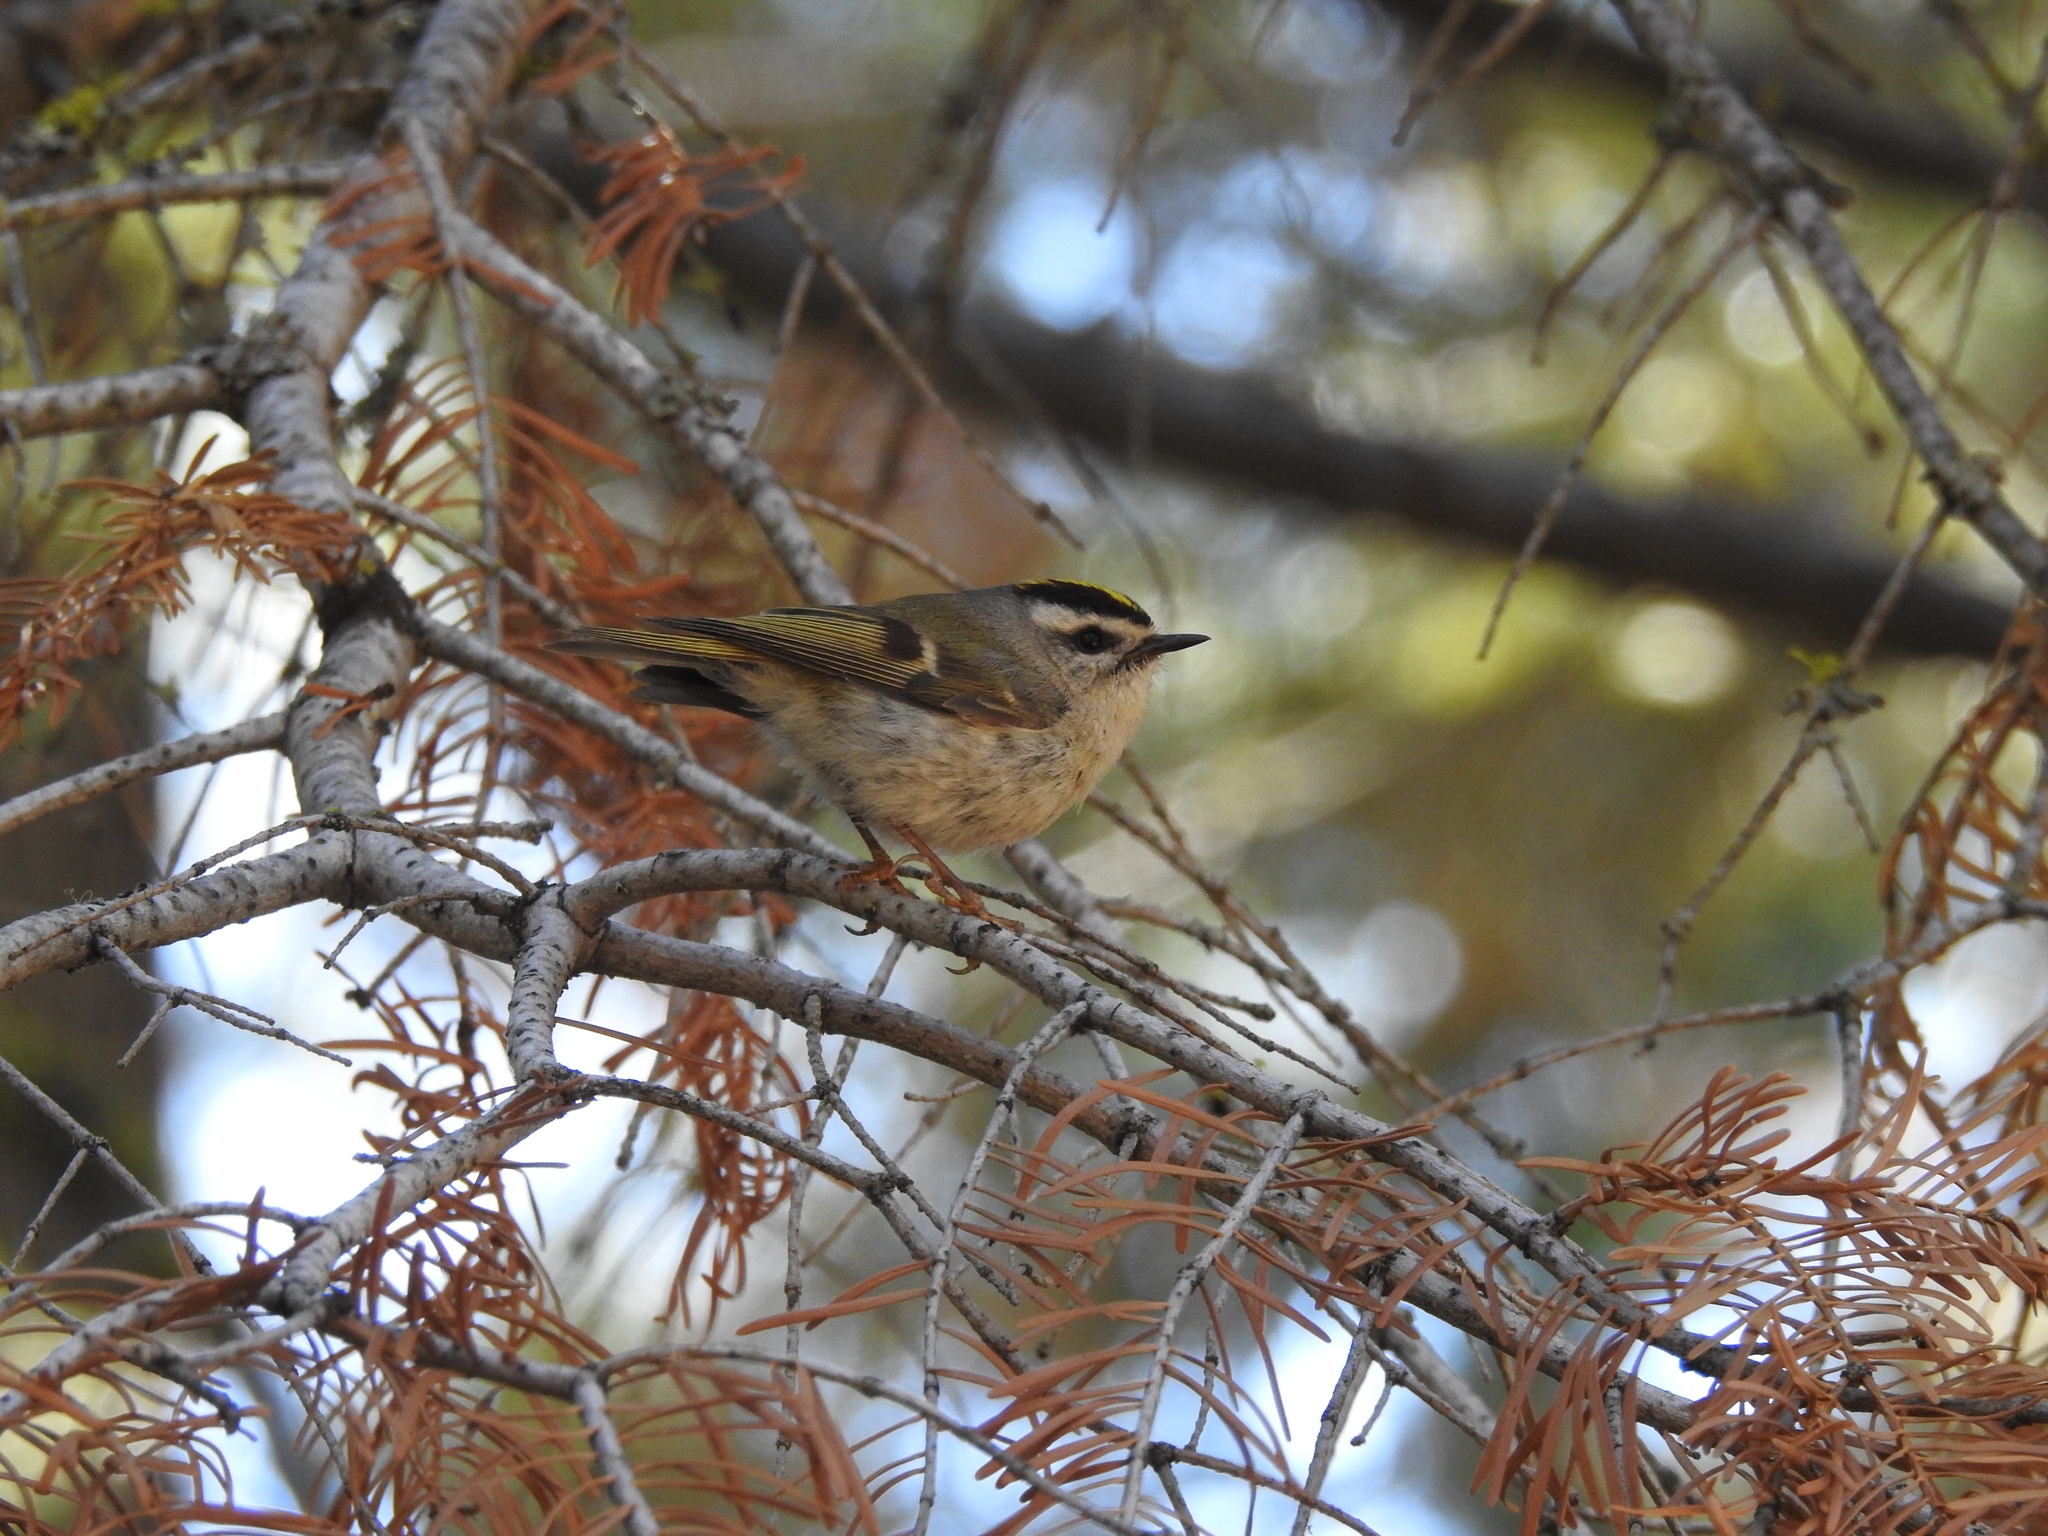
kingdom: Animalia
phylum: Chordata
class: Aves
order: Passeriformes
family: Regulidae
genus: Regulus
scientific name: Regulus satrapa
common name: Golden-crowned kinglet
